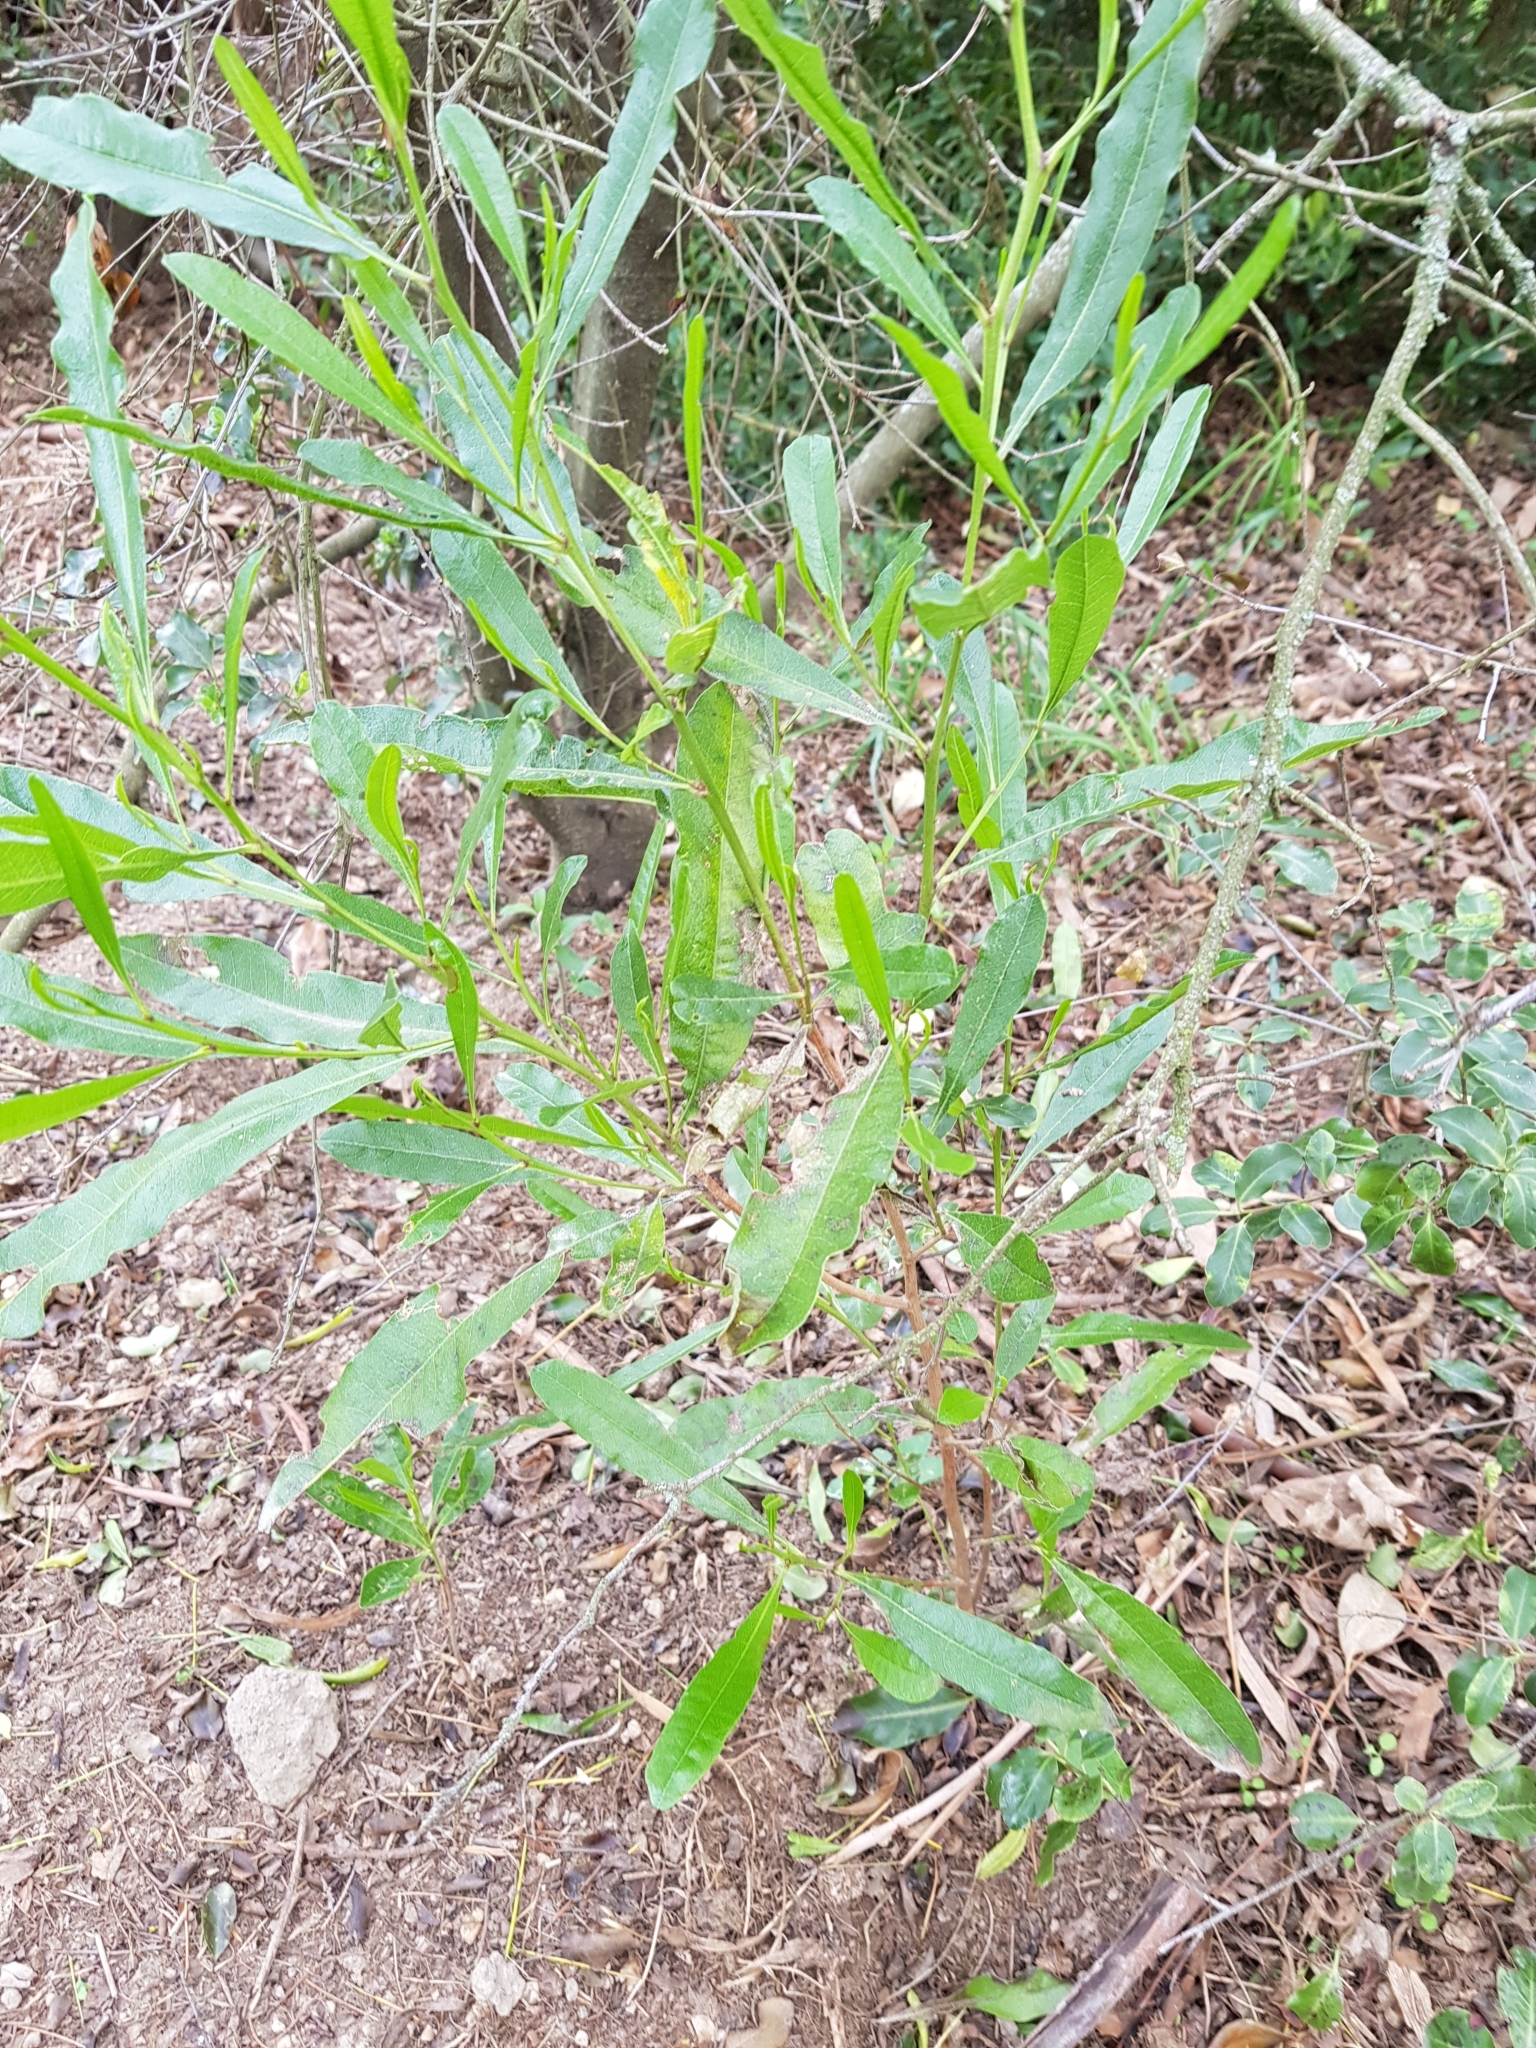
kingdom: Plantae
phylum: Tracheophyta
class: Magnoliopsida
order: Sapindales
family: Sapindaceae
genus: Dodonaea
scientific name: Dodonaea viscosa
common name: Hopbush
